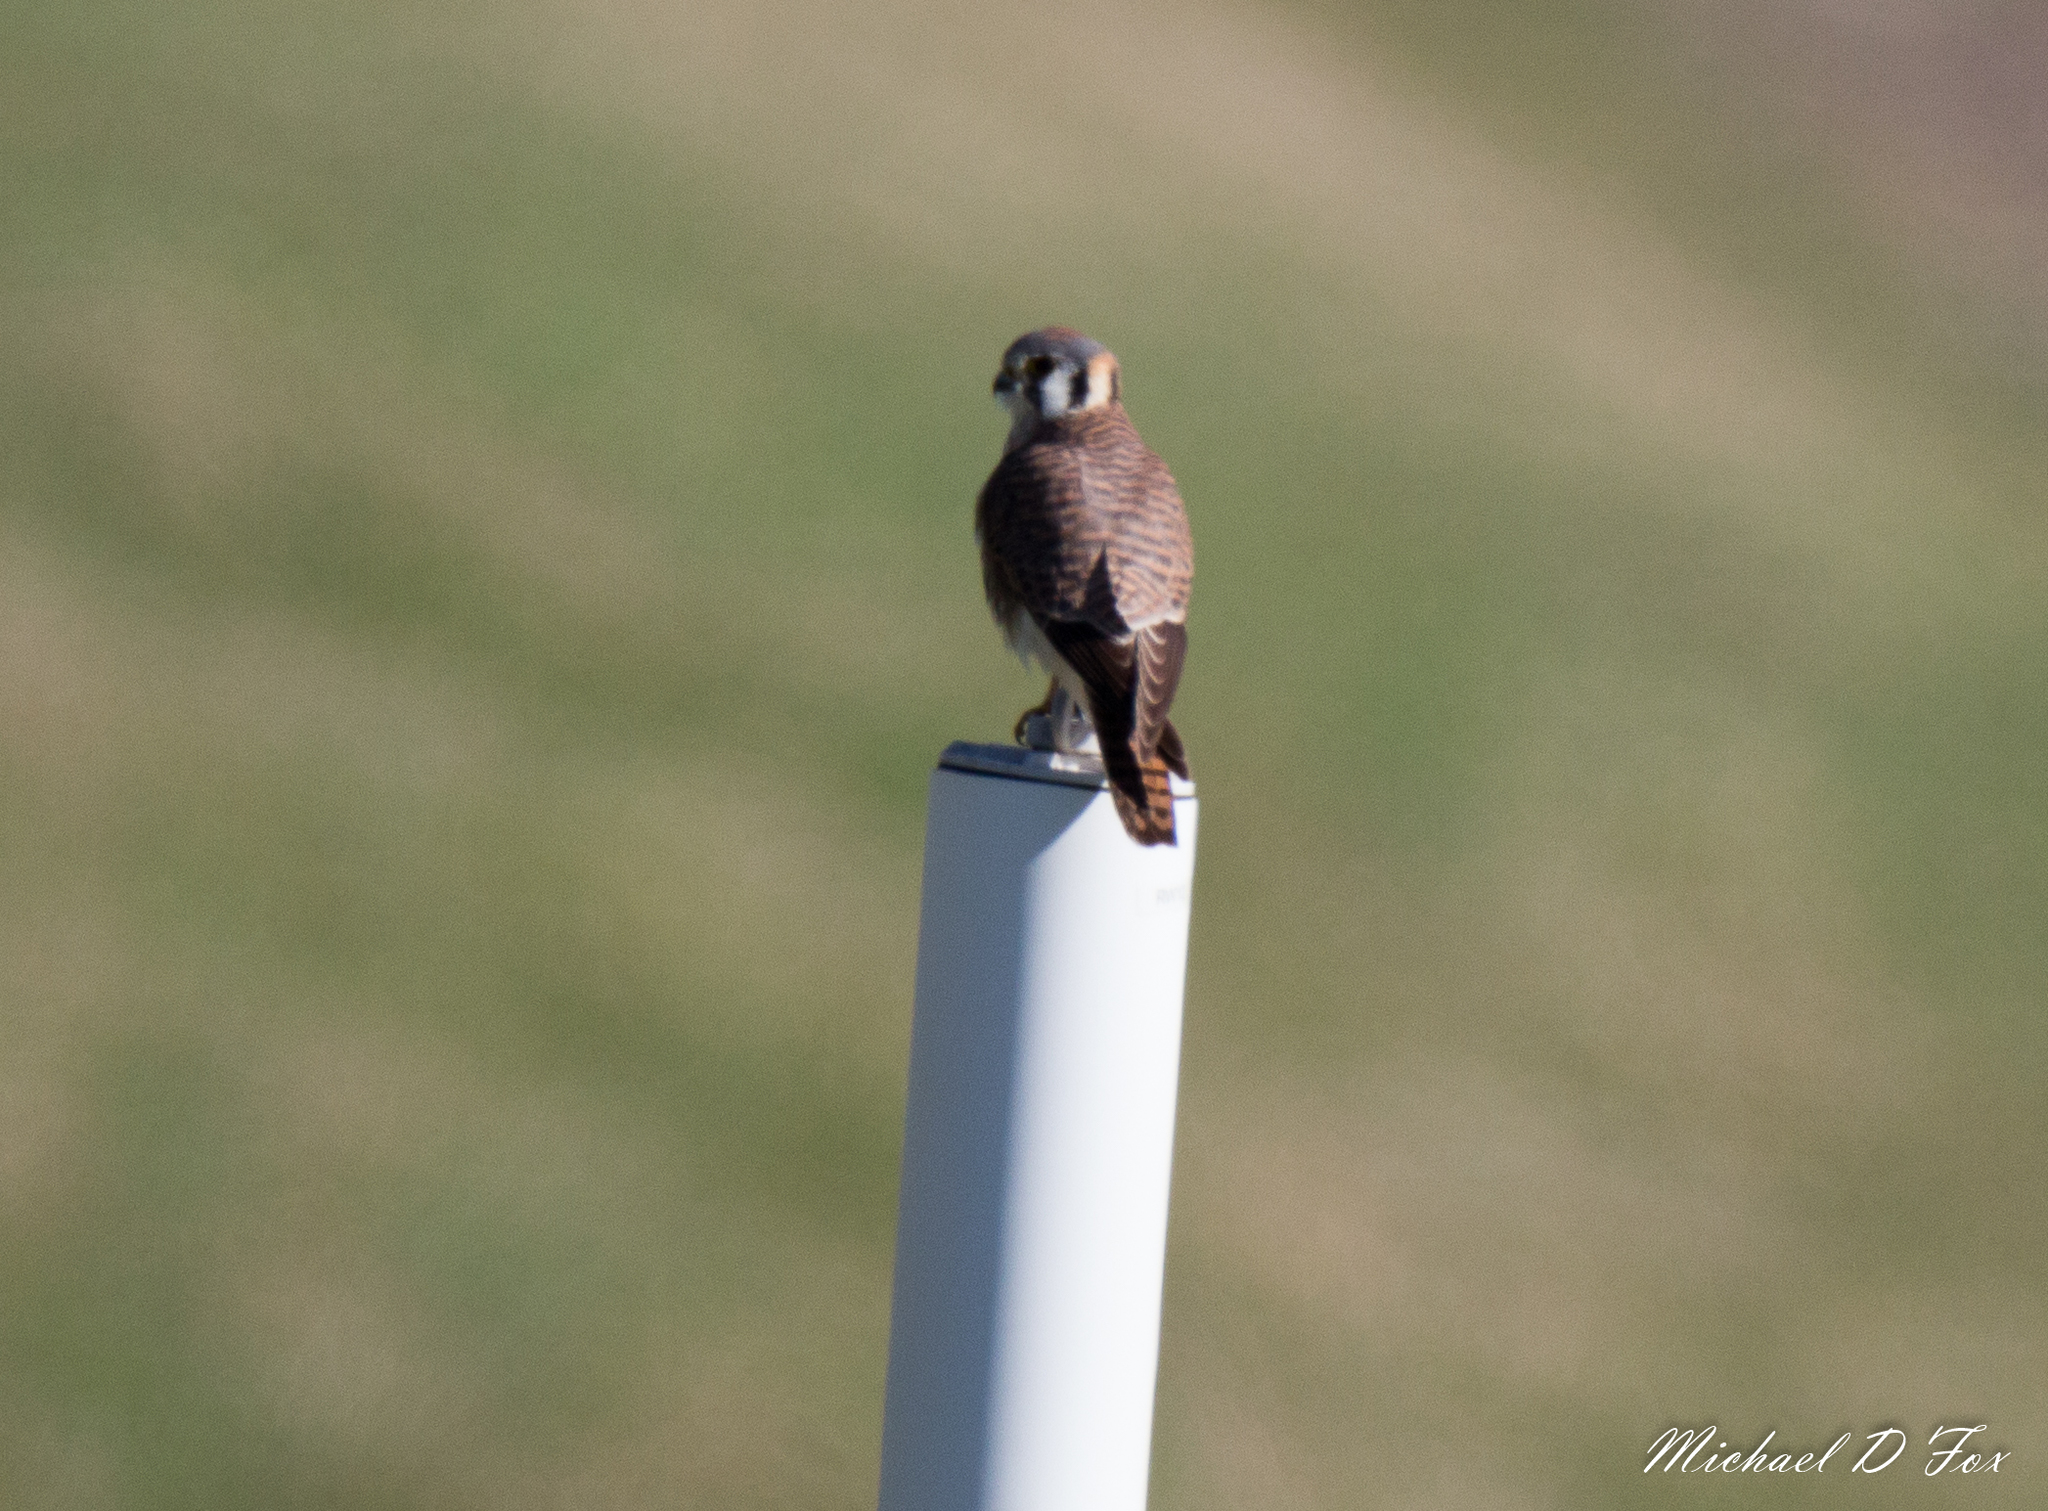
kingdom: Animalia
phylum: Chordata
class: Aves
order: Falconiformes
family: Falconidae
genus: Falco
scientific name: Falco sparverius
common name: American kestrel
